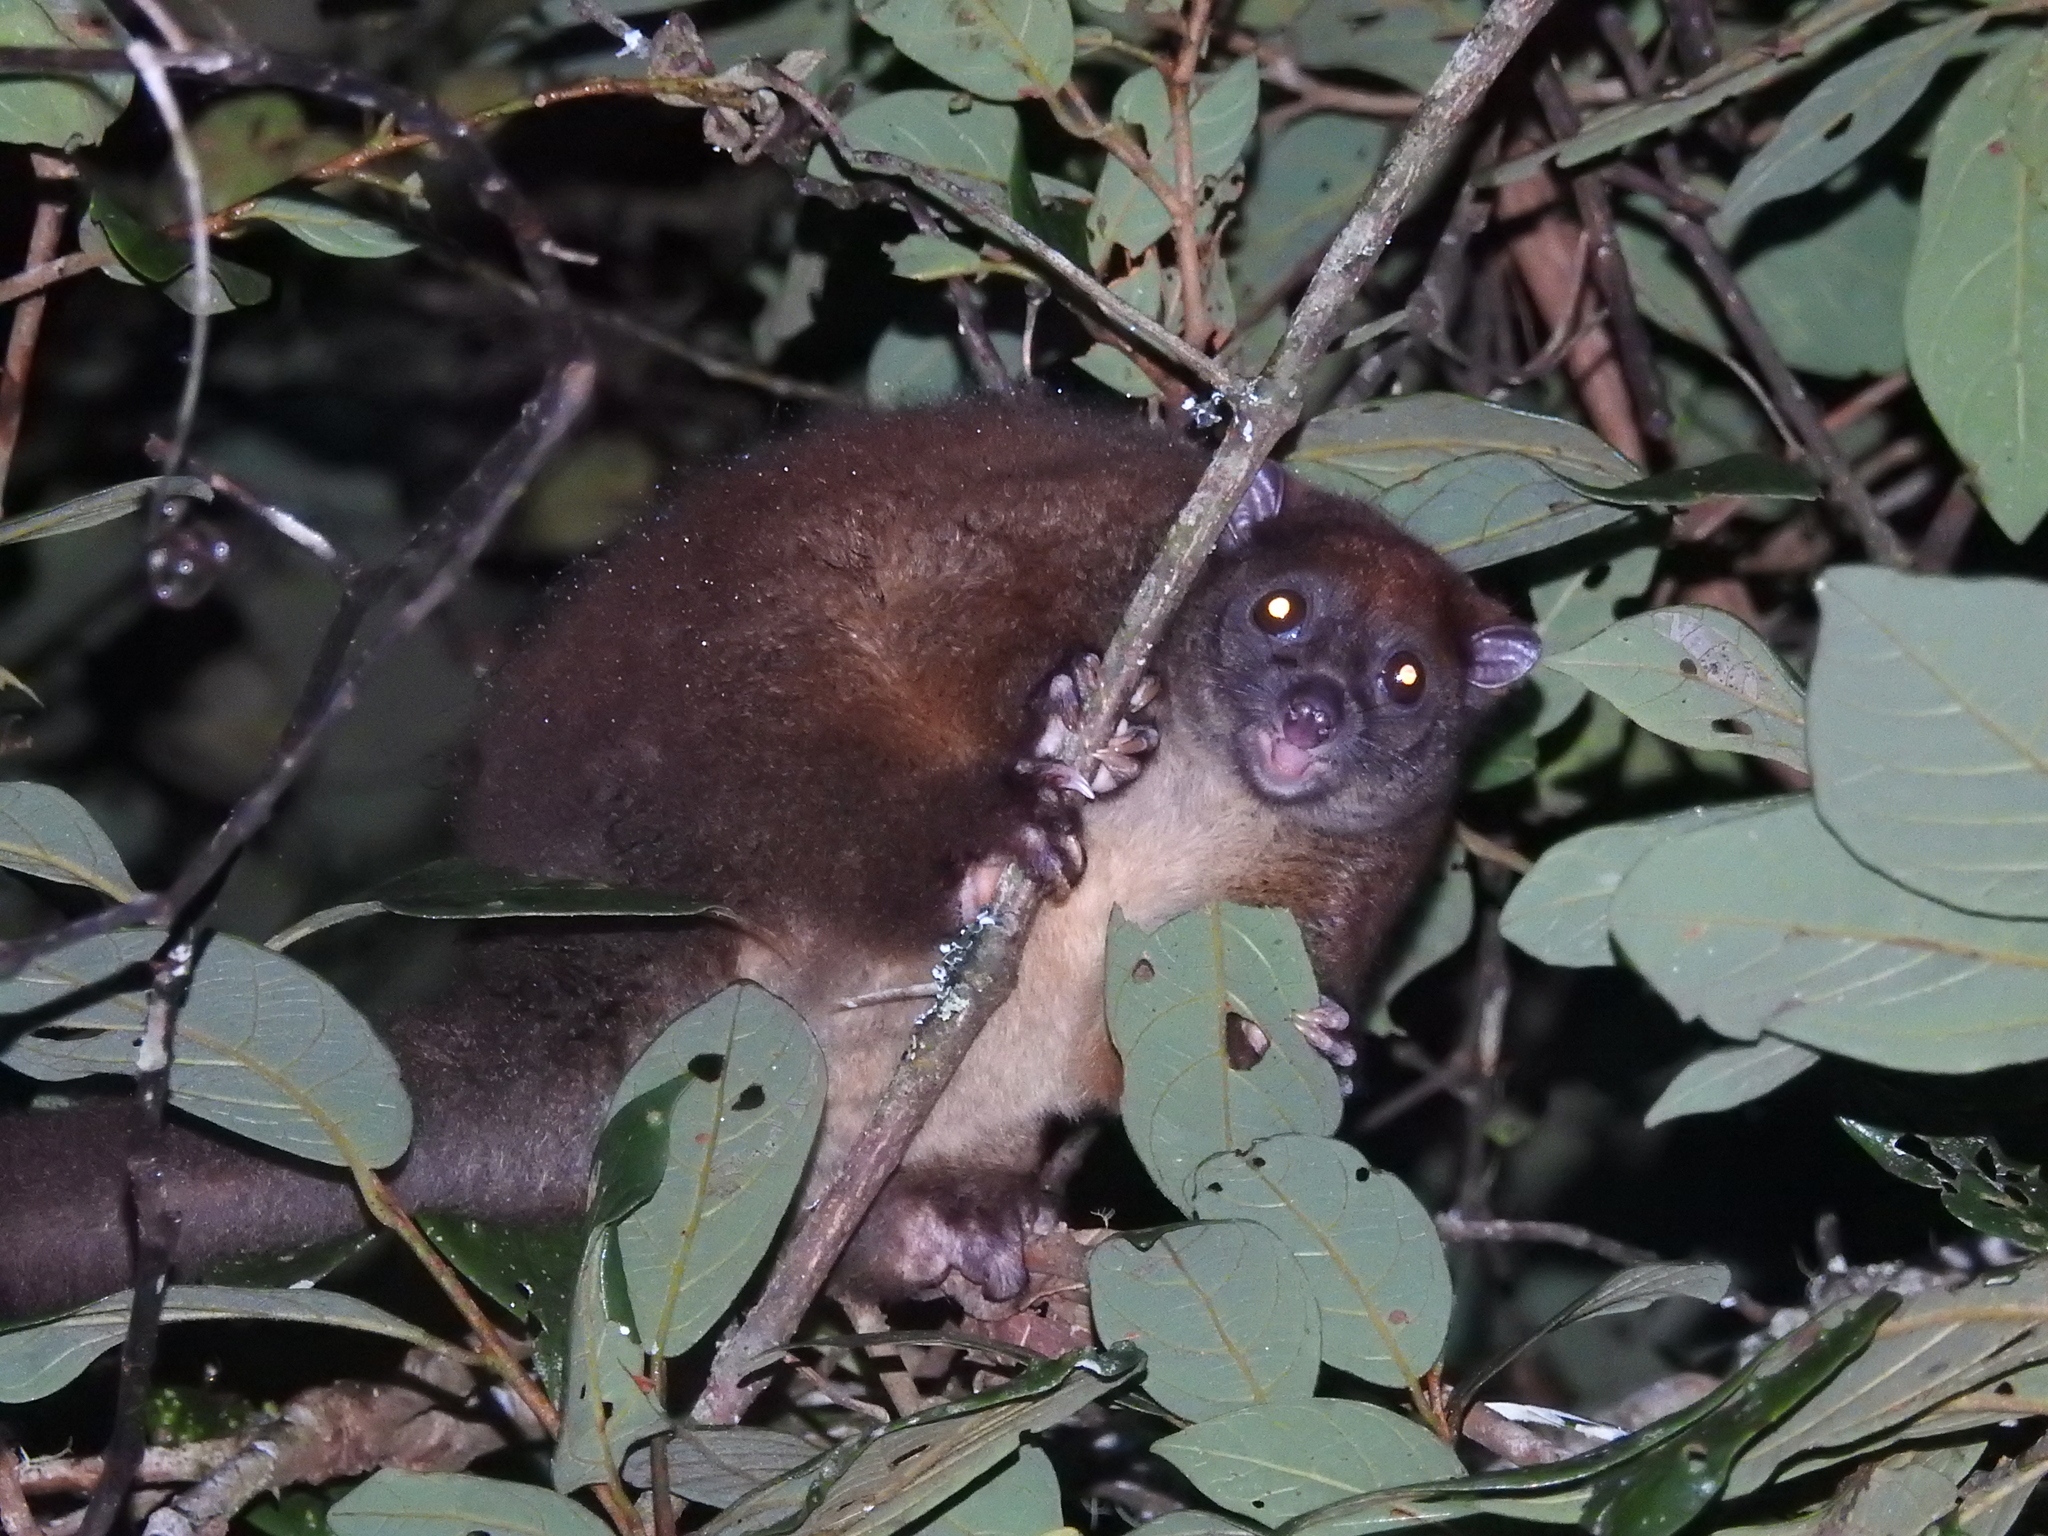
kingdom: Animalia
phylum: Chordata
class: Mammalia
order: Diprotodontia
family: Pseudocheiridae
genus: Hemibelideus
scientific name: Hemibelideus lemuroides
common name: Lemur-like ringtail
